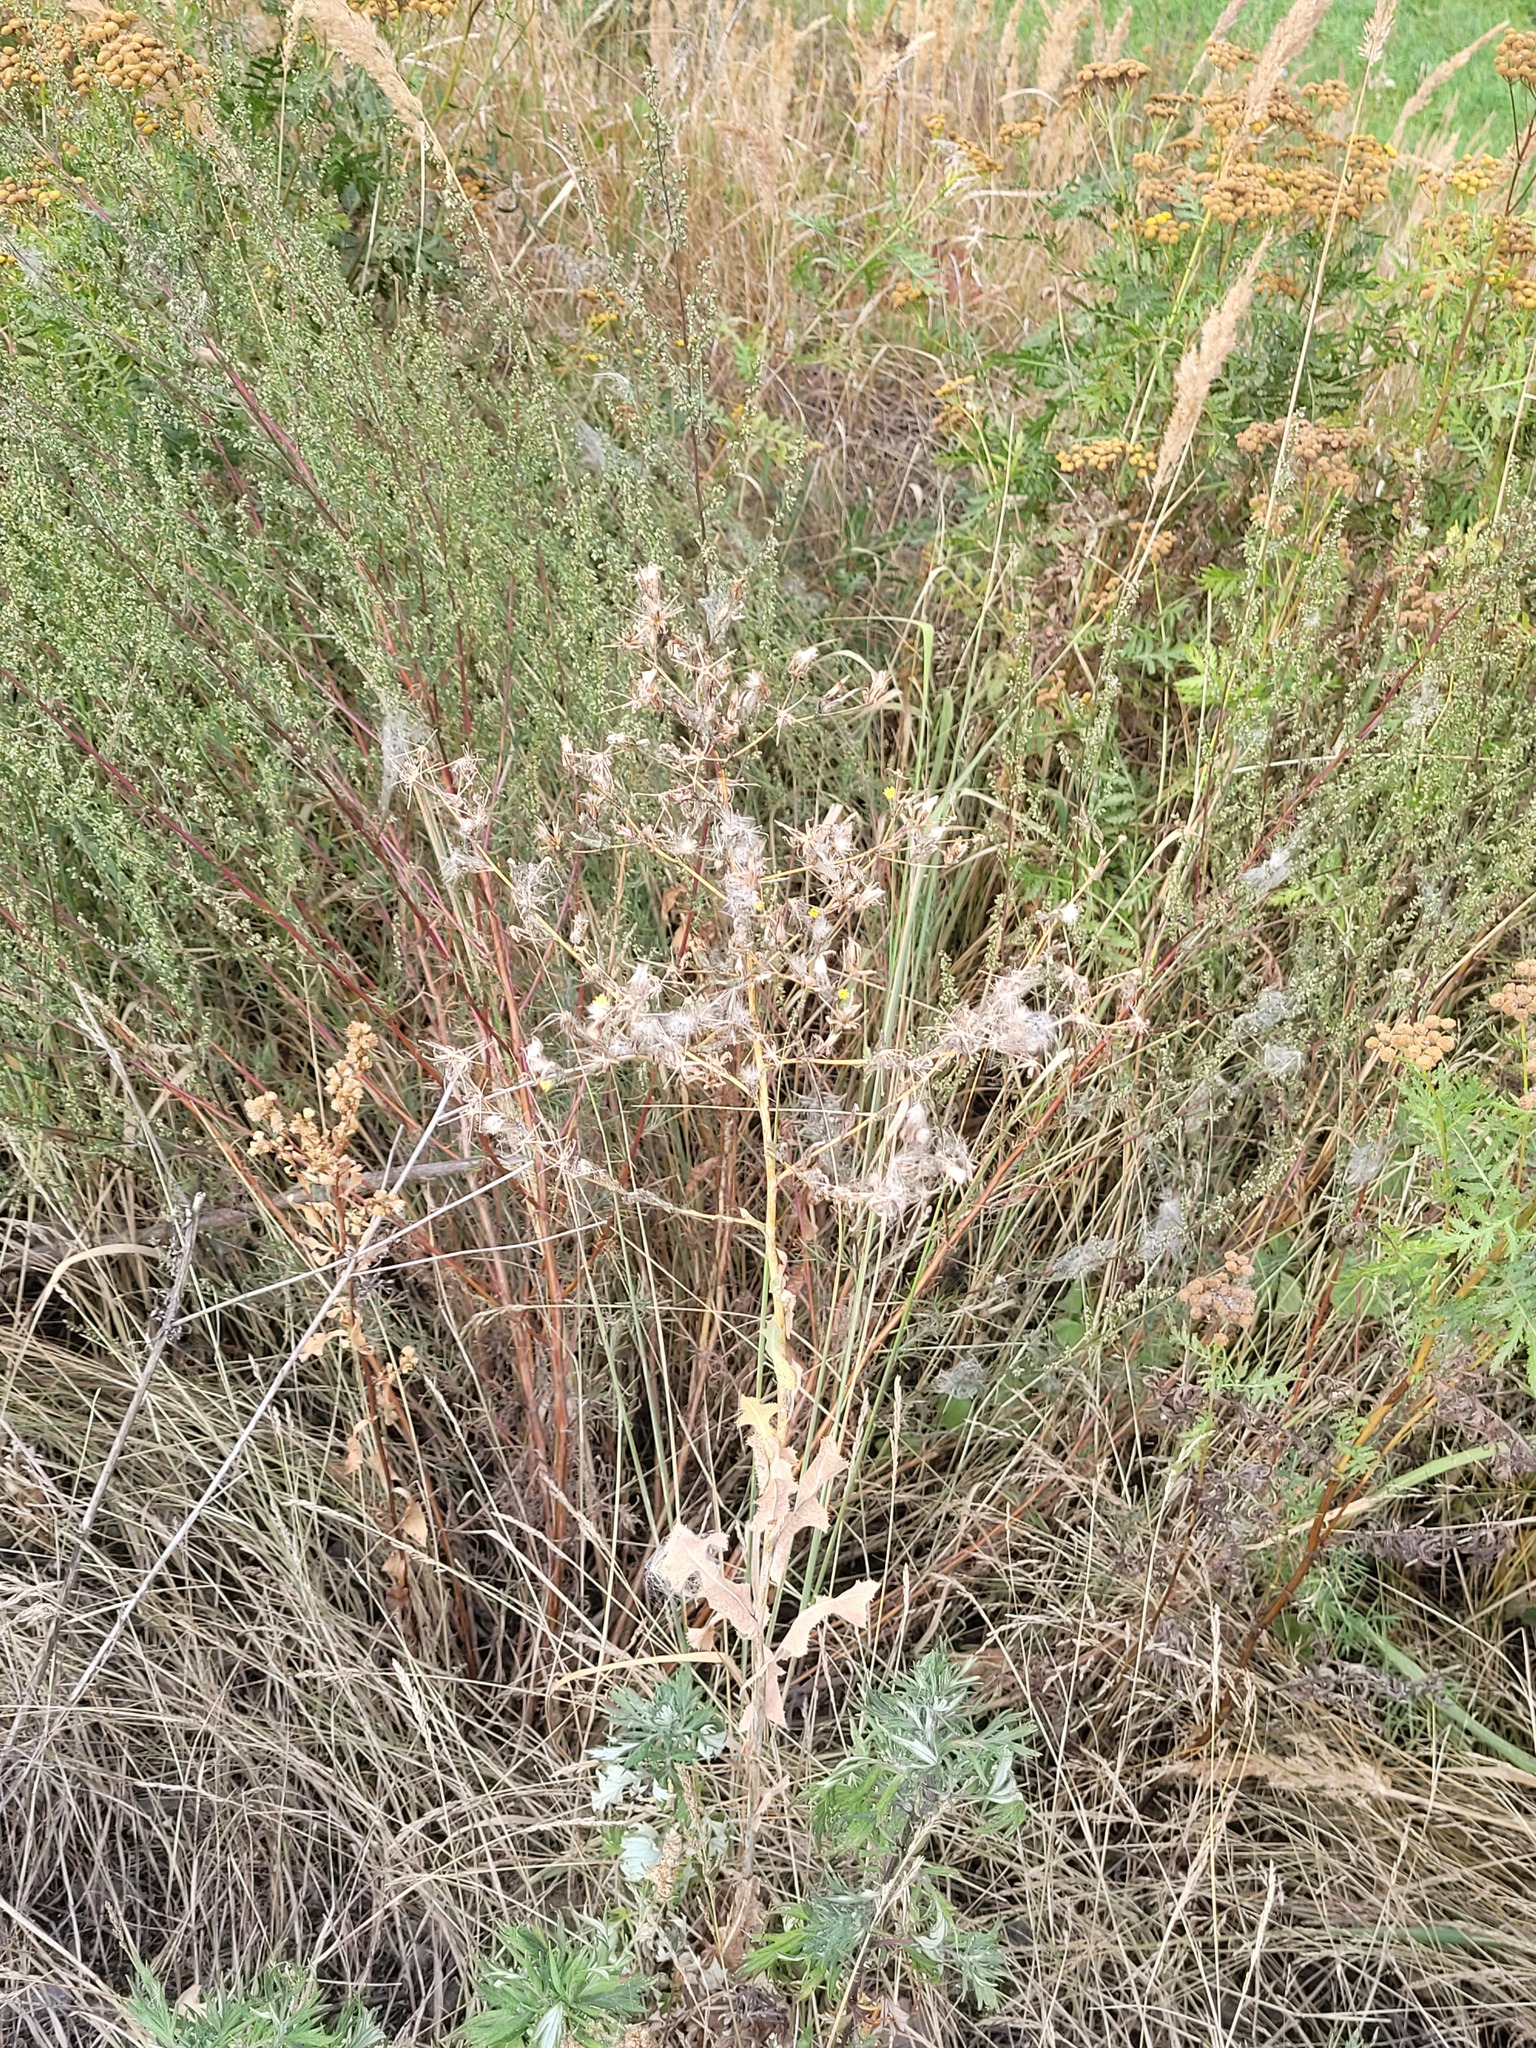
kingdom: Plantae
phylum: Tracheophyta
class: Magnoliopsida
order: Asterales
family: Asteraceae
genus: Lactuca
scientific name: Lactuca serriola
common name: Prickly lettuce
